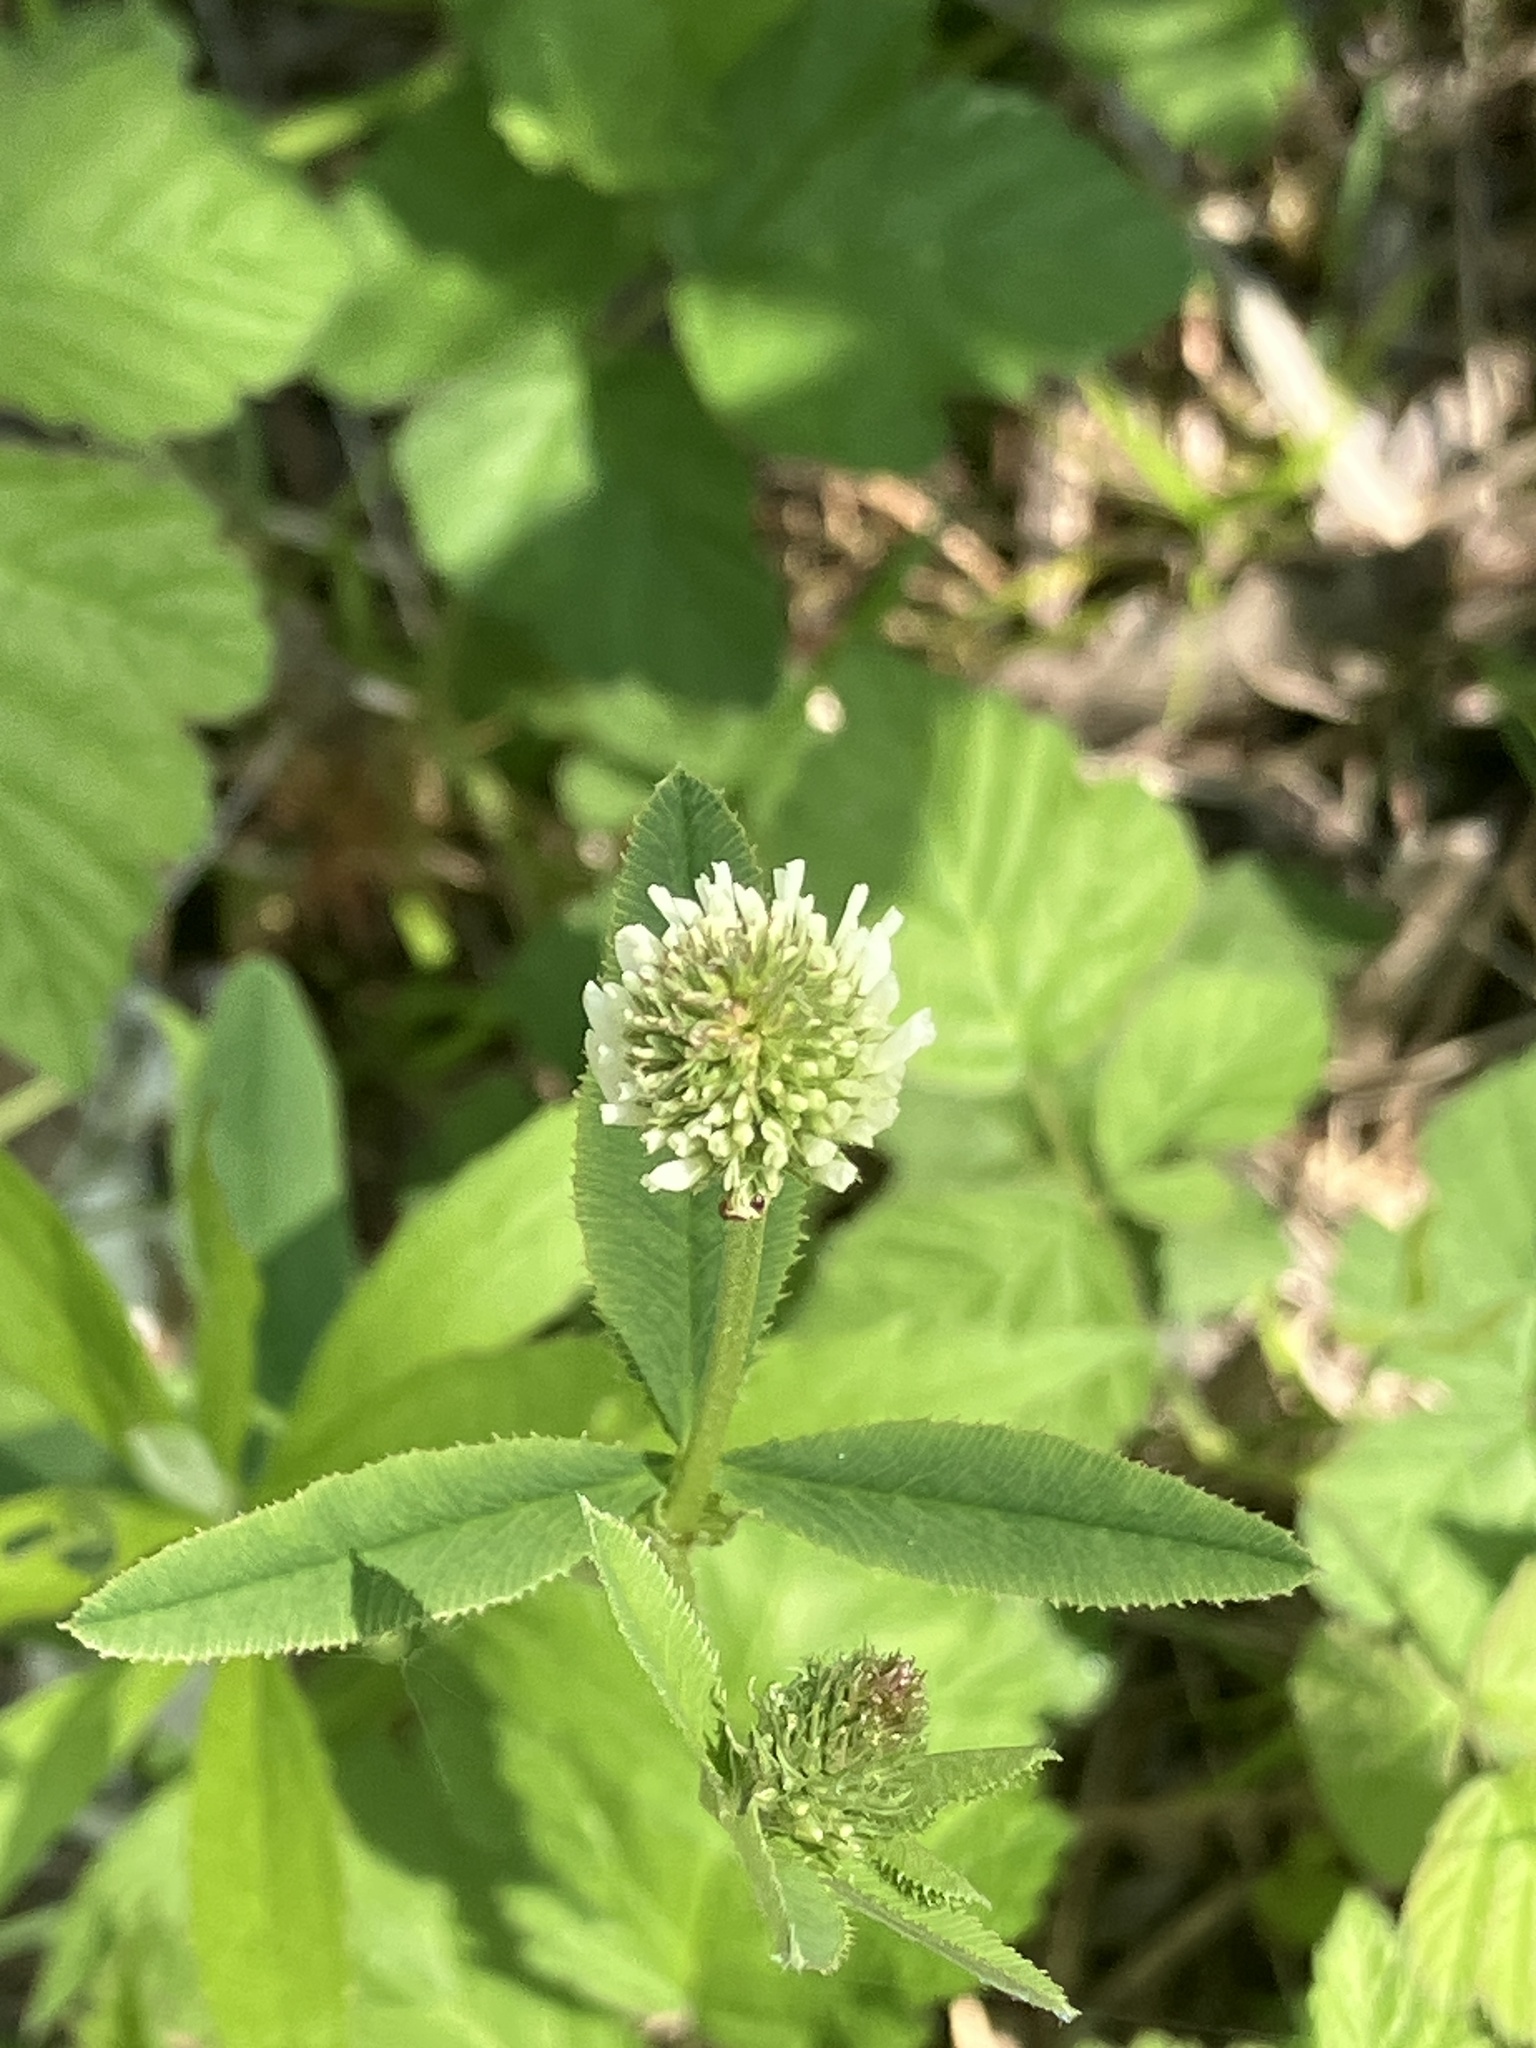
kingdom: Plantae
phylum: Tracheophyta
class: Magnoliopsida
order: Fabales
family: Fabaceae
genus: Trifolium
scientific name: Trifolium montanum
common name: Mountain clover
